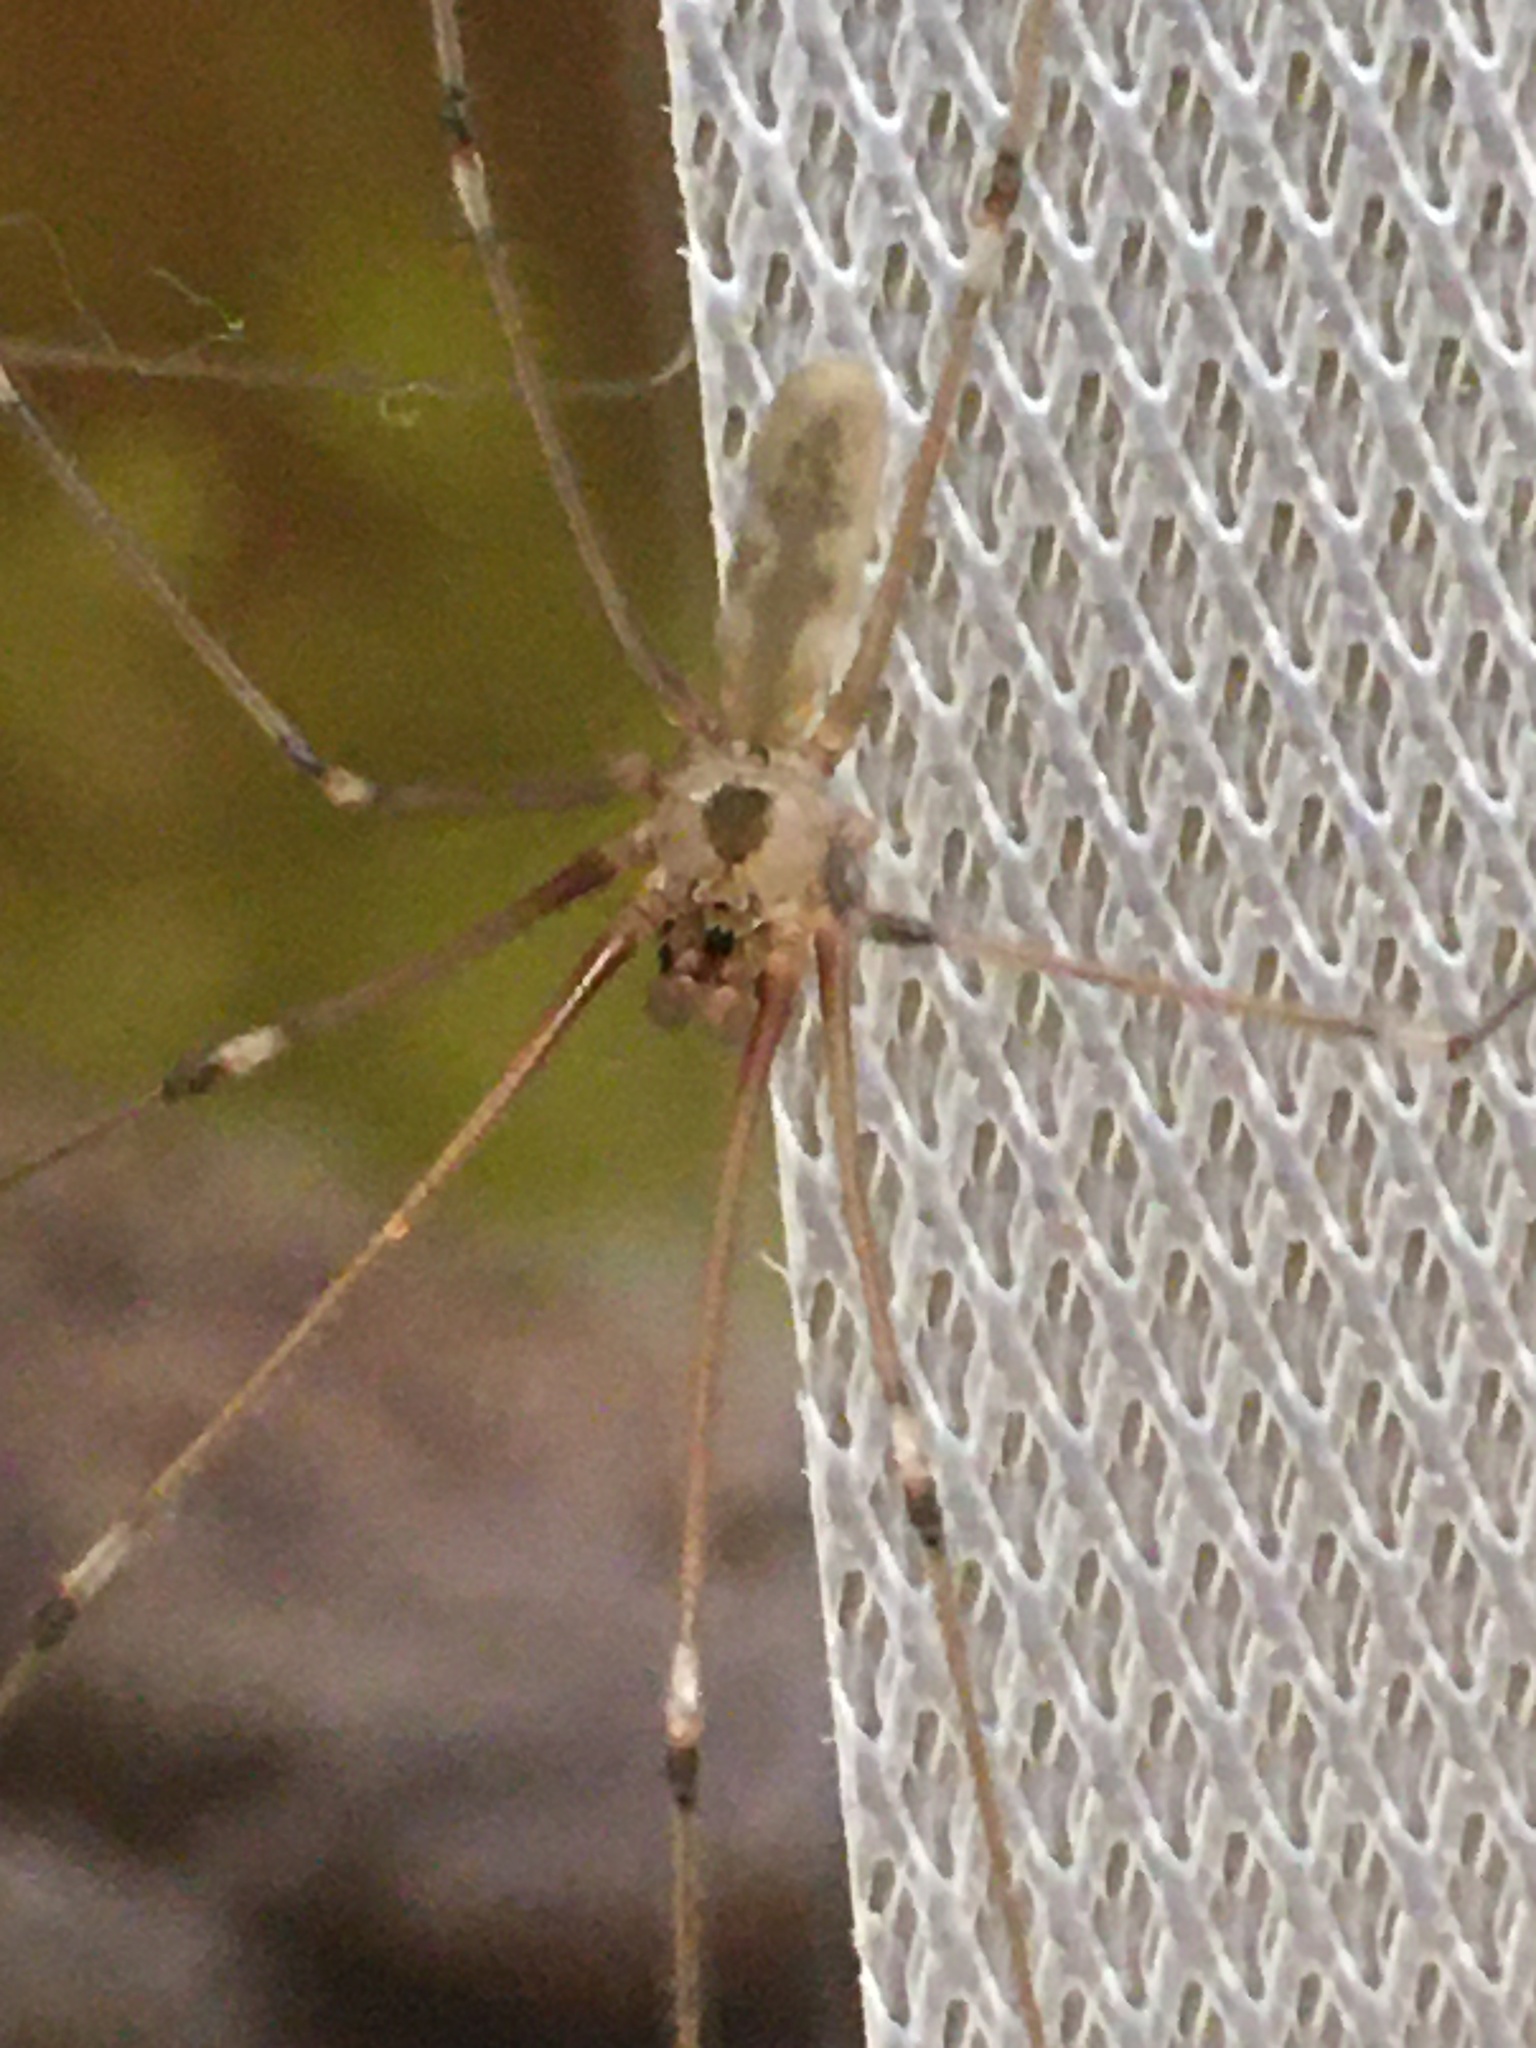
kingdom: Animalia
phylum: Arthropoda
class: Arachnida
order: Araneae
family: Pholcidae
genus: Pholcus
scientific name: Pholcus phalangioides
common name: Longbodied cellar spider
